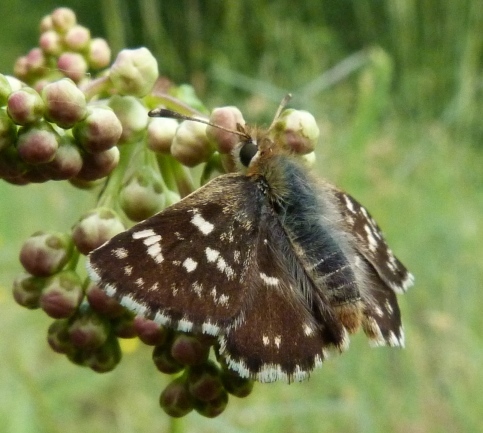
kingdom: Animalia
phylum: Arthropoda
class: Insecta
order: Lepidoptera
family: Hesperiidae
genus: Spialia
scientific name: Spialia sertorius
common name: Red underwing skipper
